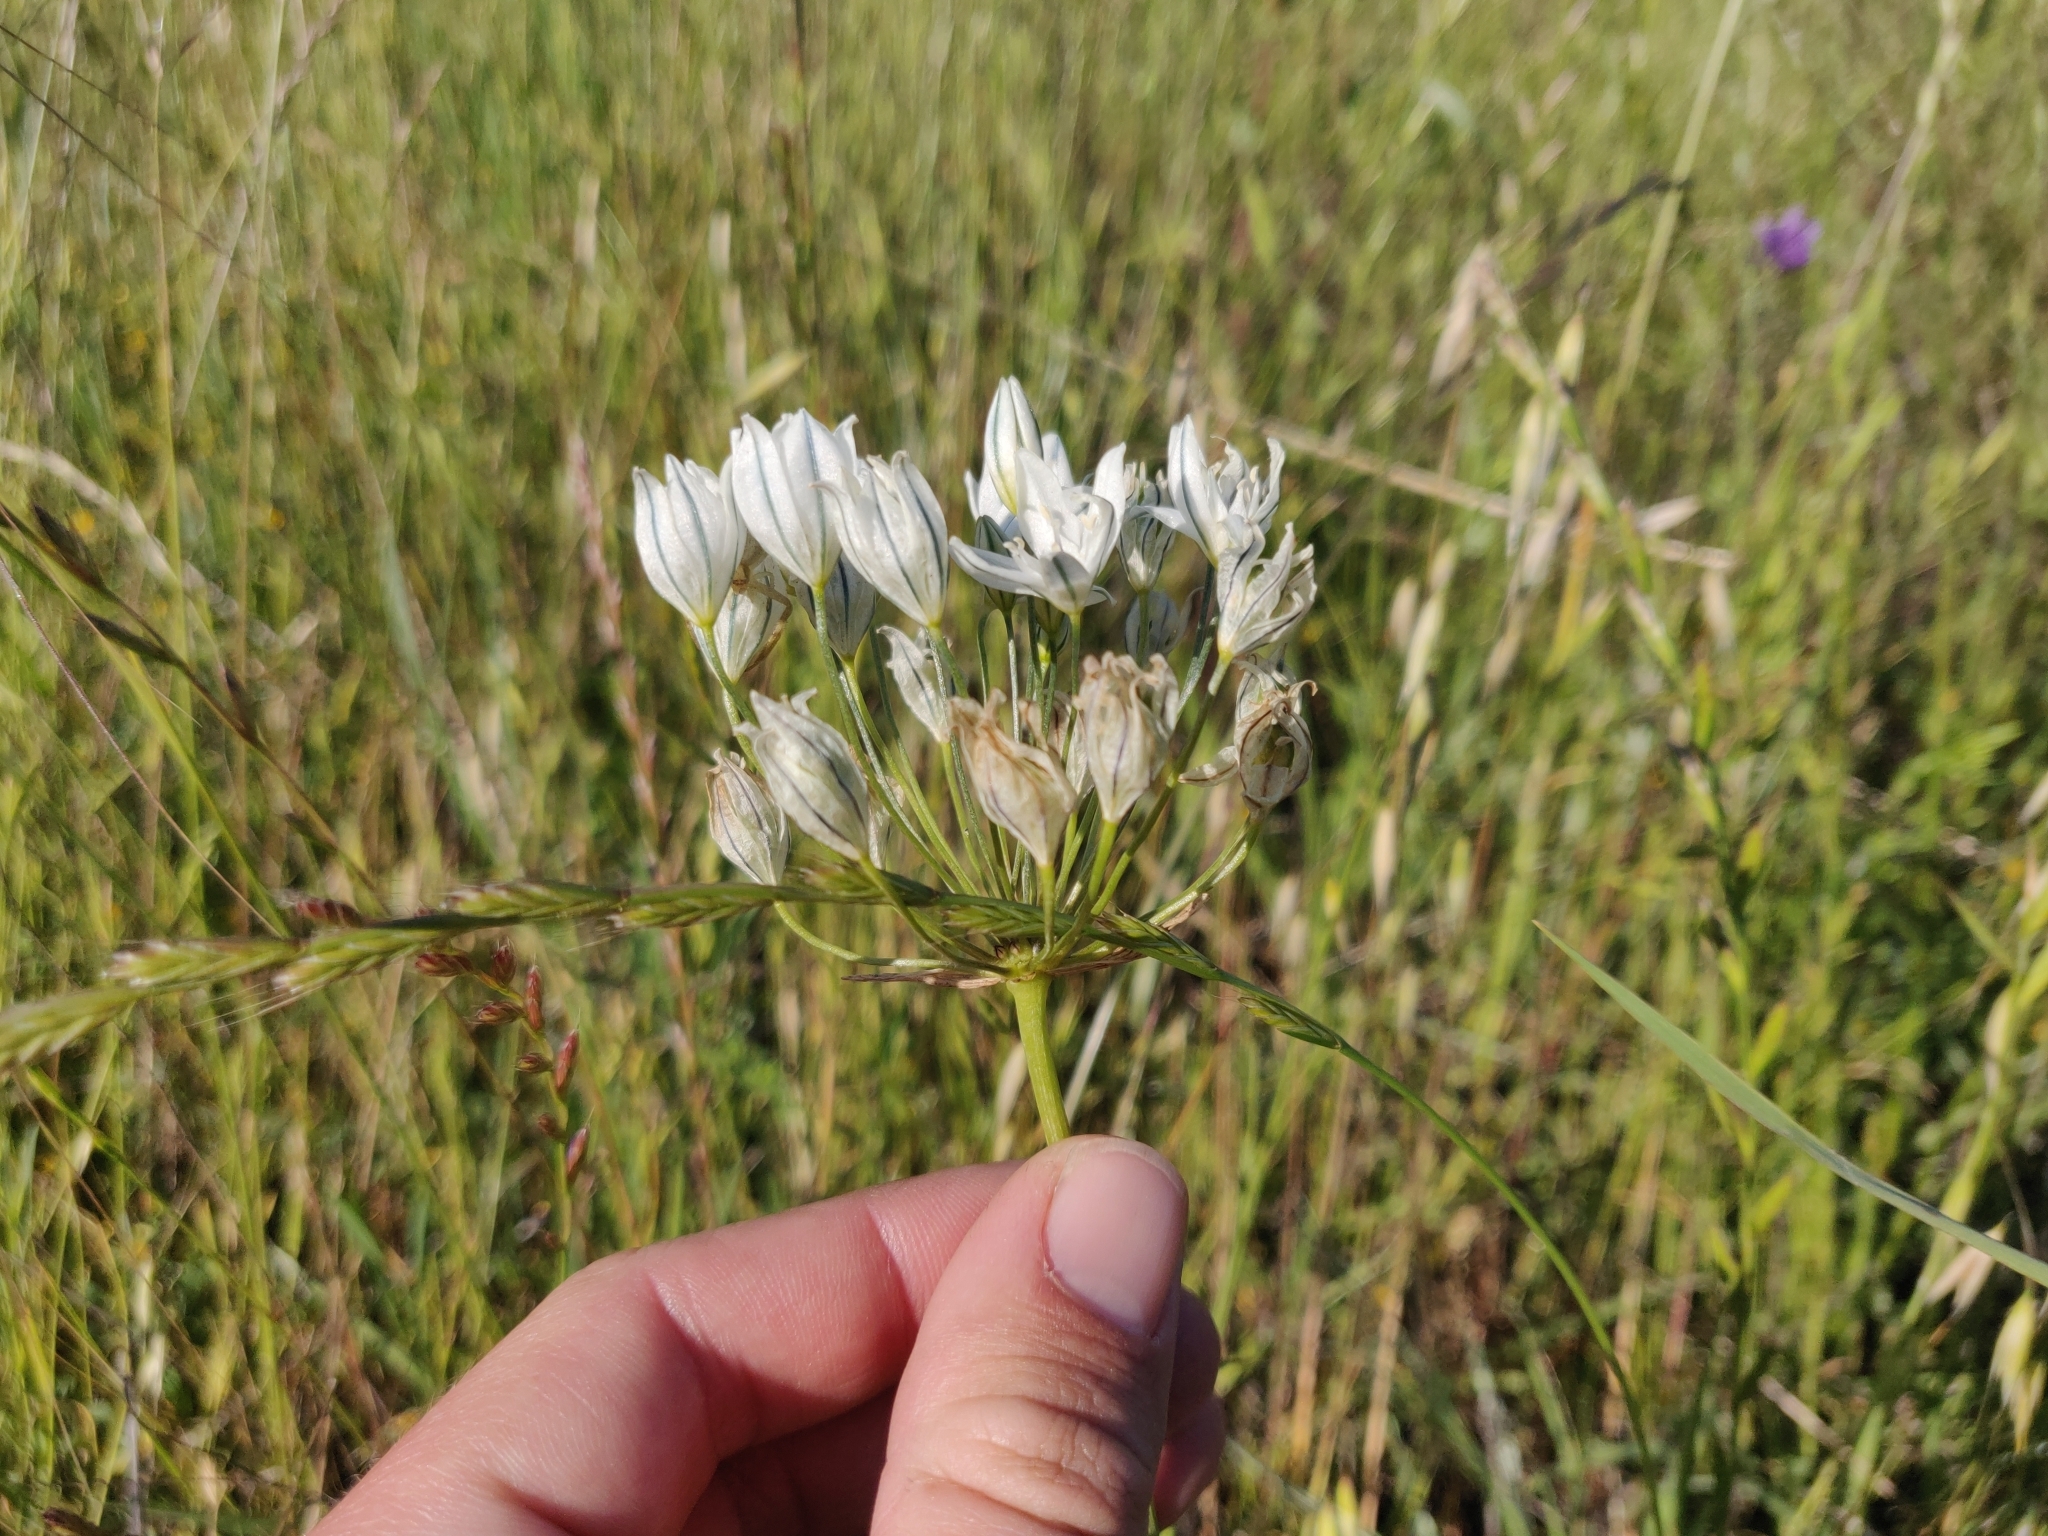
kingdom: Plantae
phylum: Tracheophyta
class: Liliopsida
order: Asparagales
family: Asparagaceae
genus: Triteleia
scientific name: Triteleia hyacinthina
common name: White brodiaea
